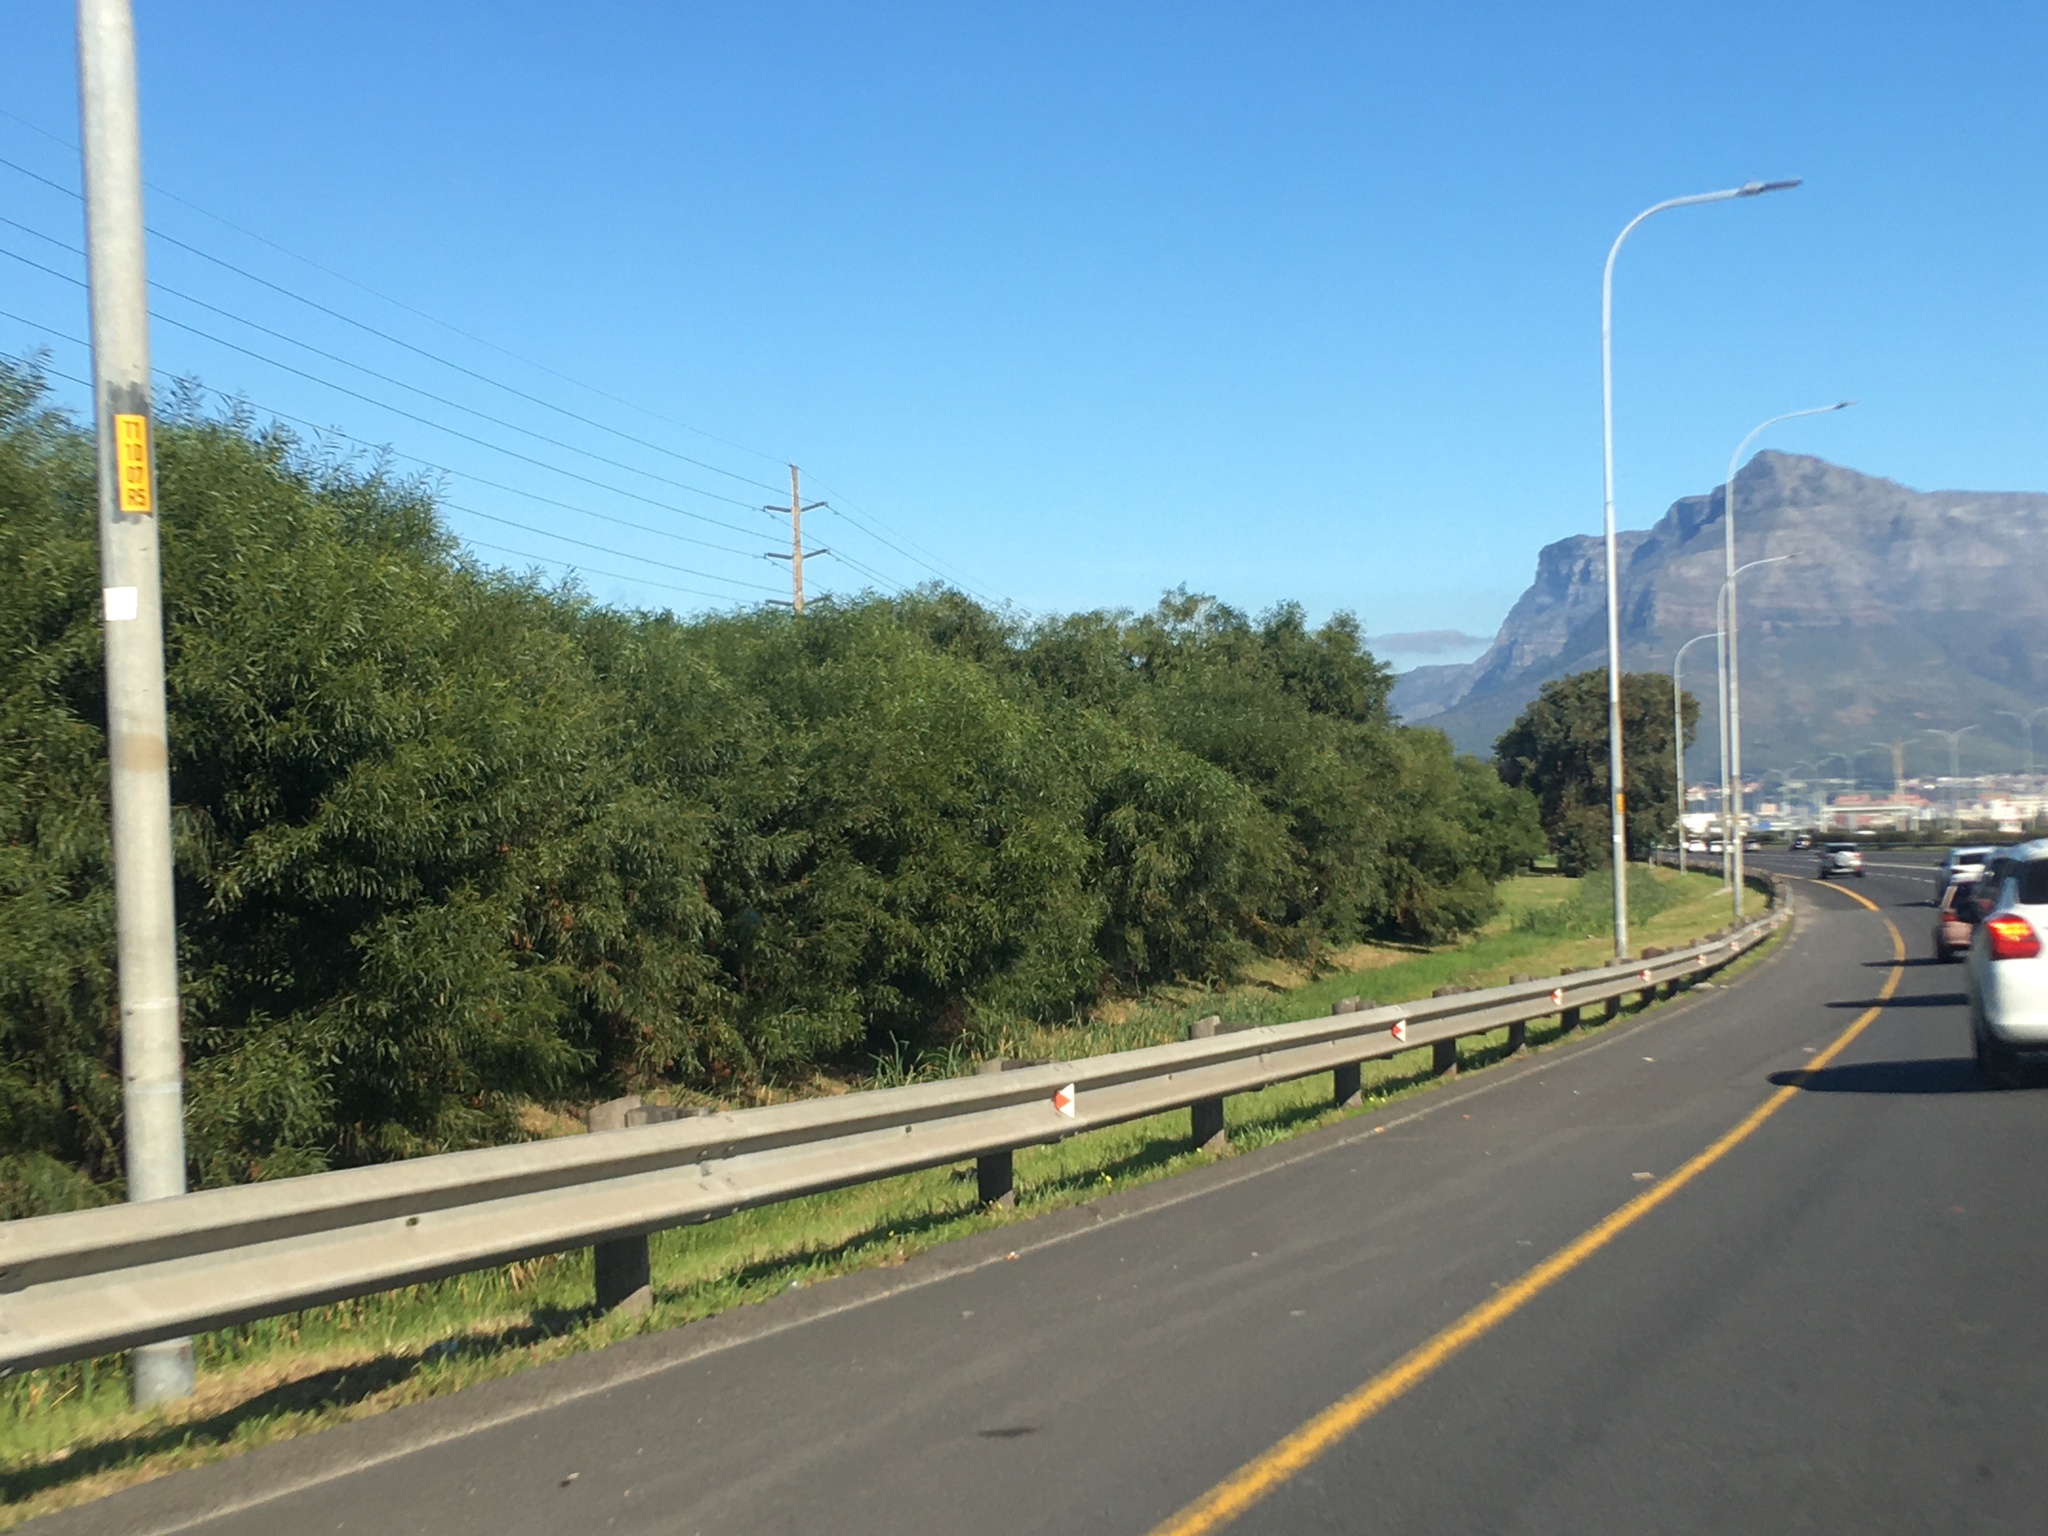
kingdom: Plantae
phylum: Tracheophyta
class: Magnoliopsida
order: Fabales
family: Fabaceae
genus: Acacia
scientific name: Acacia saligna
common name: Orange wattle
